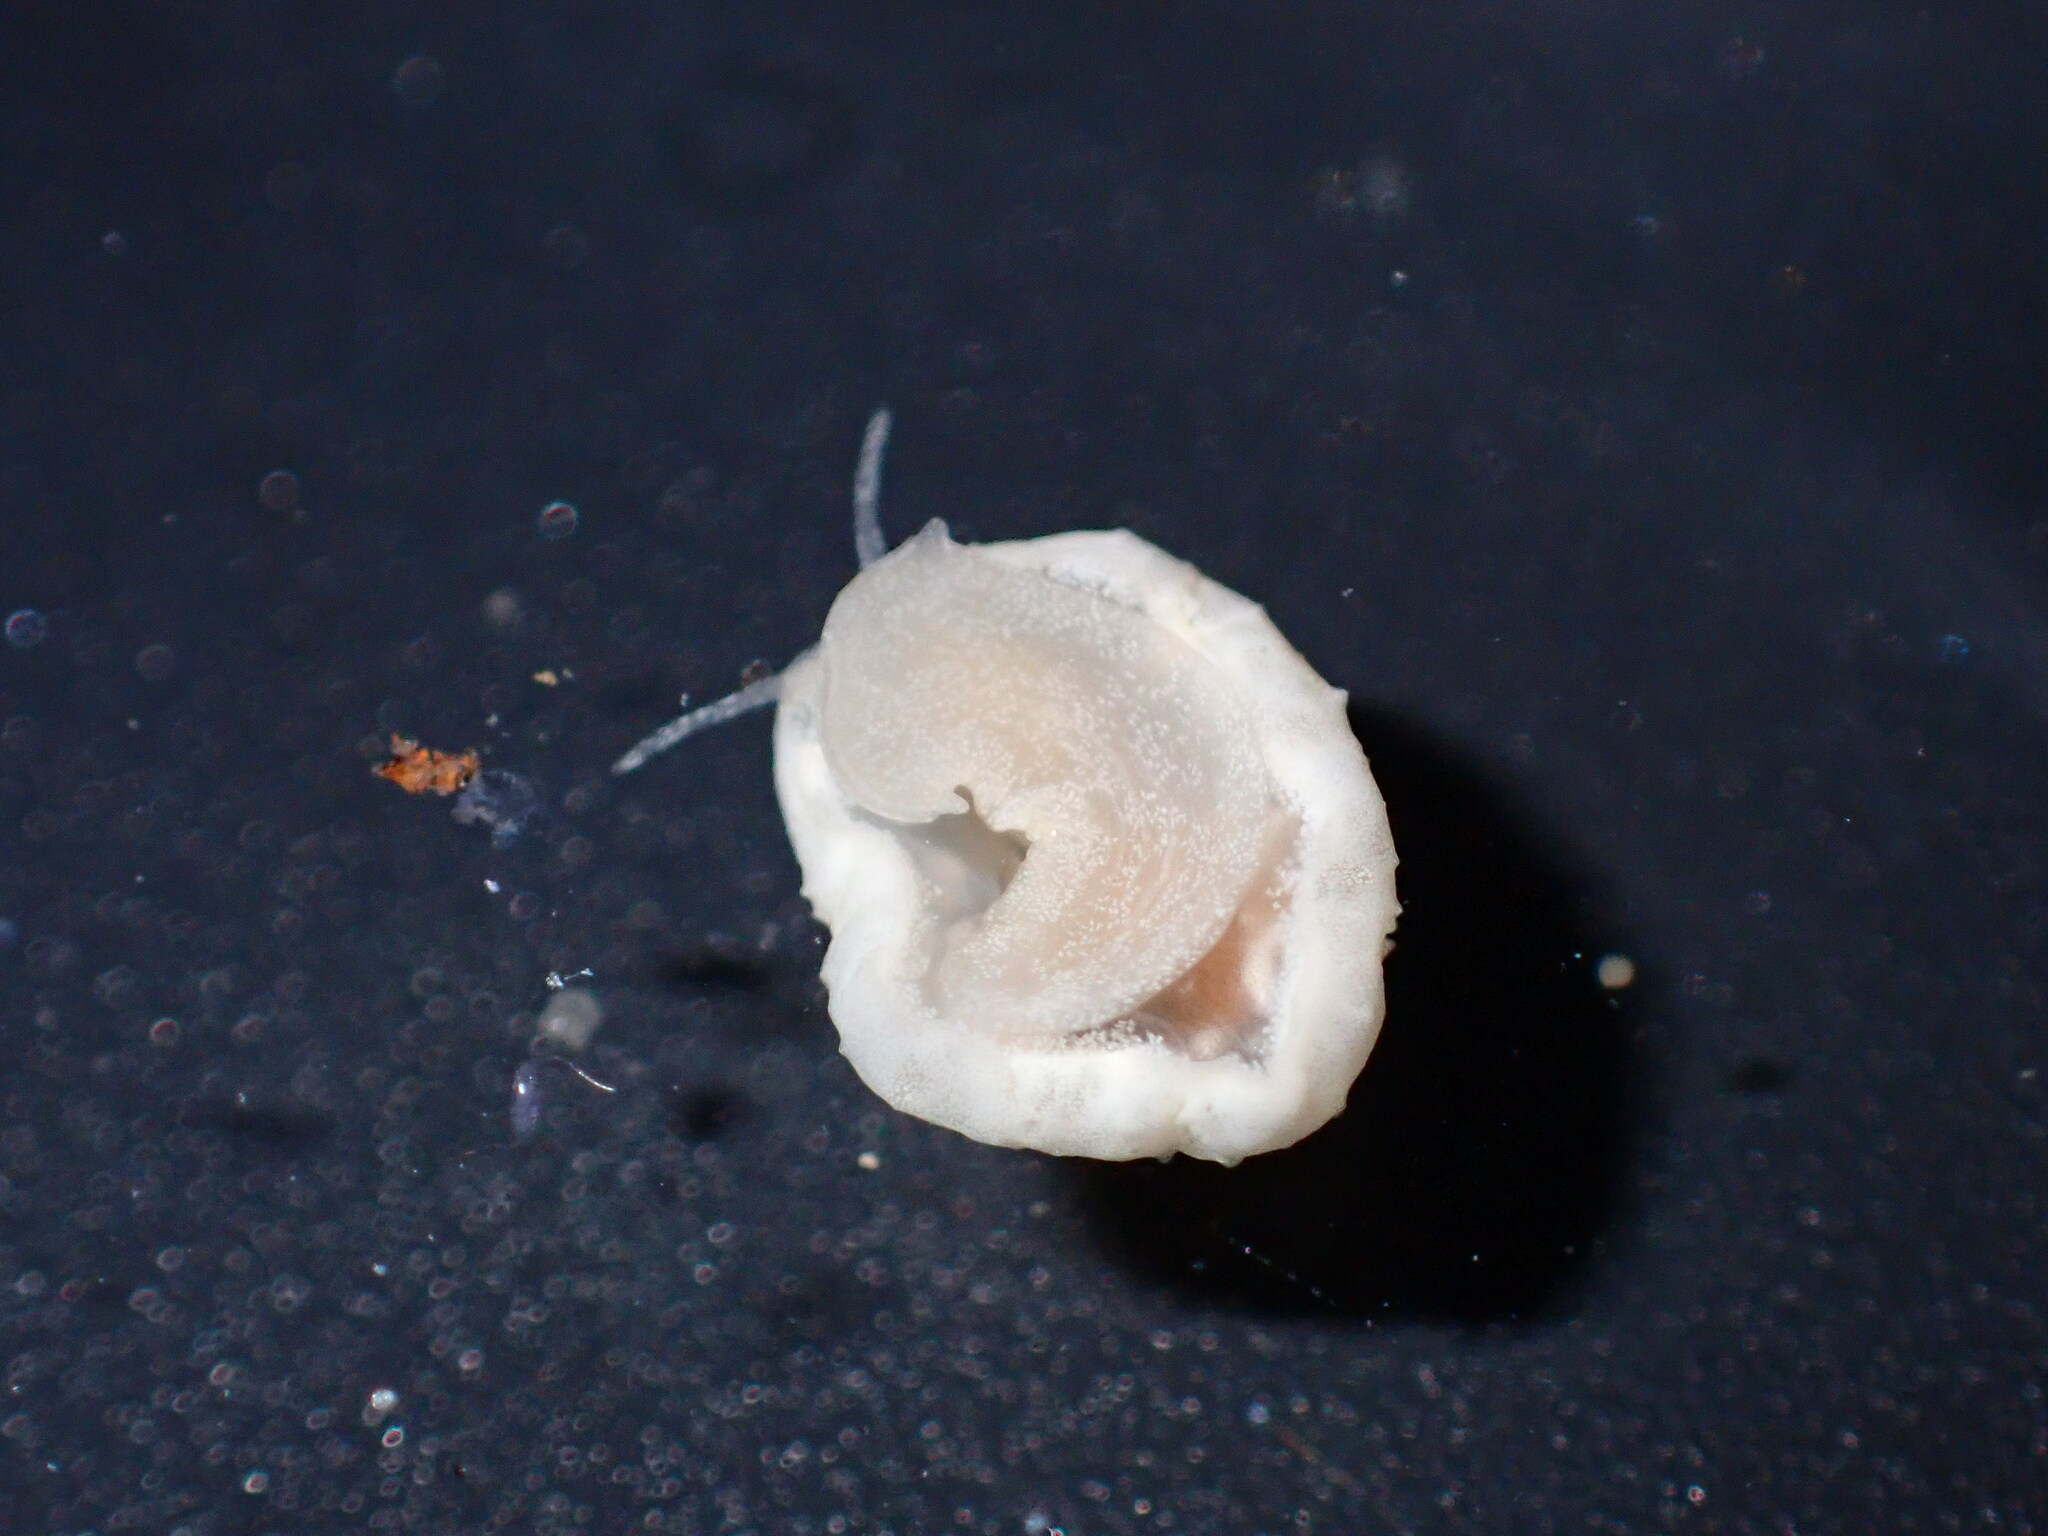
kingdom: Animalia
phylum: Mollusca
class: Gastropoda
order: Littorinimorpha
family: Velutinidae
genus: Lamellaria
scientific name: Lamellaria ophione
